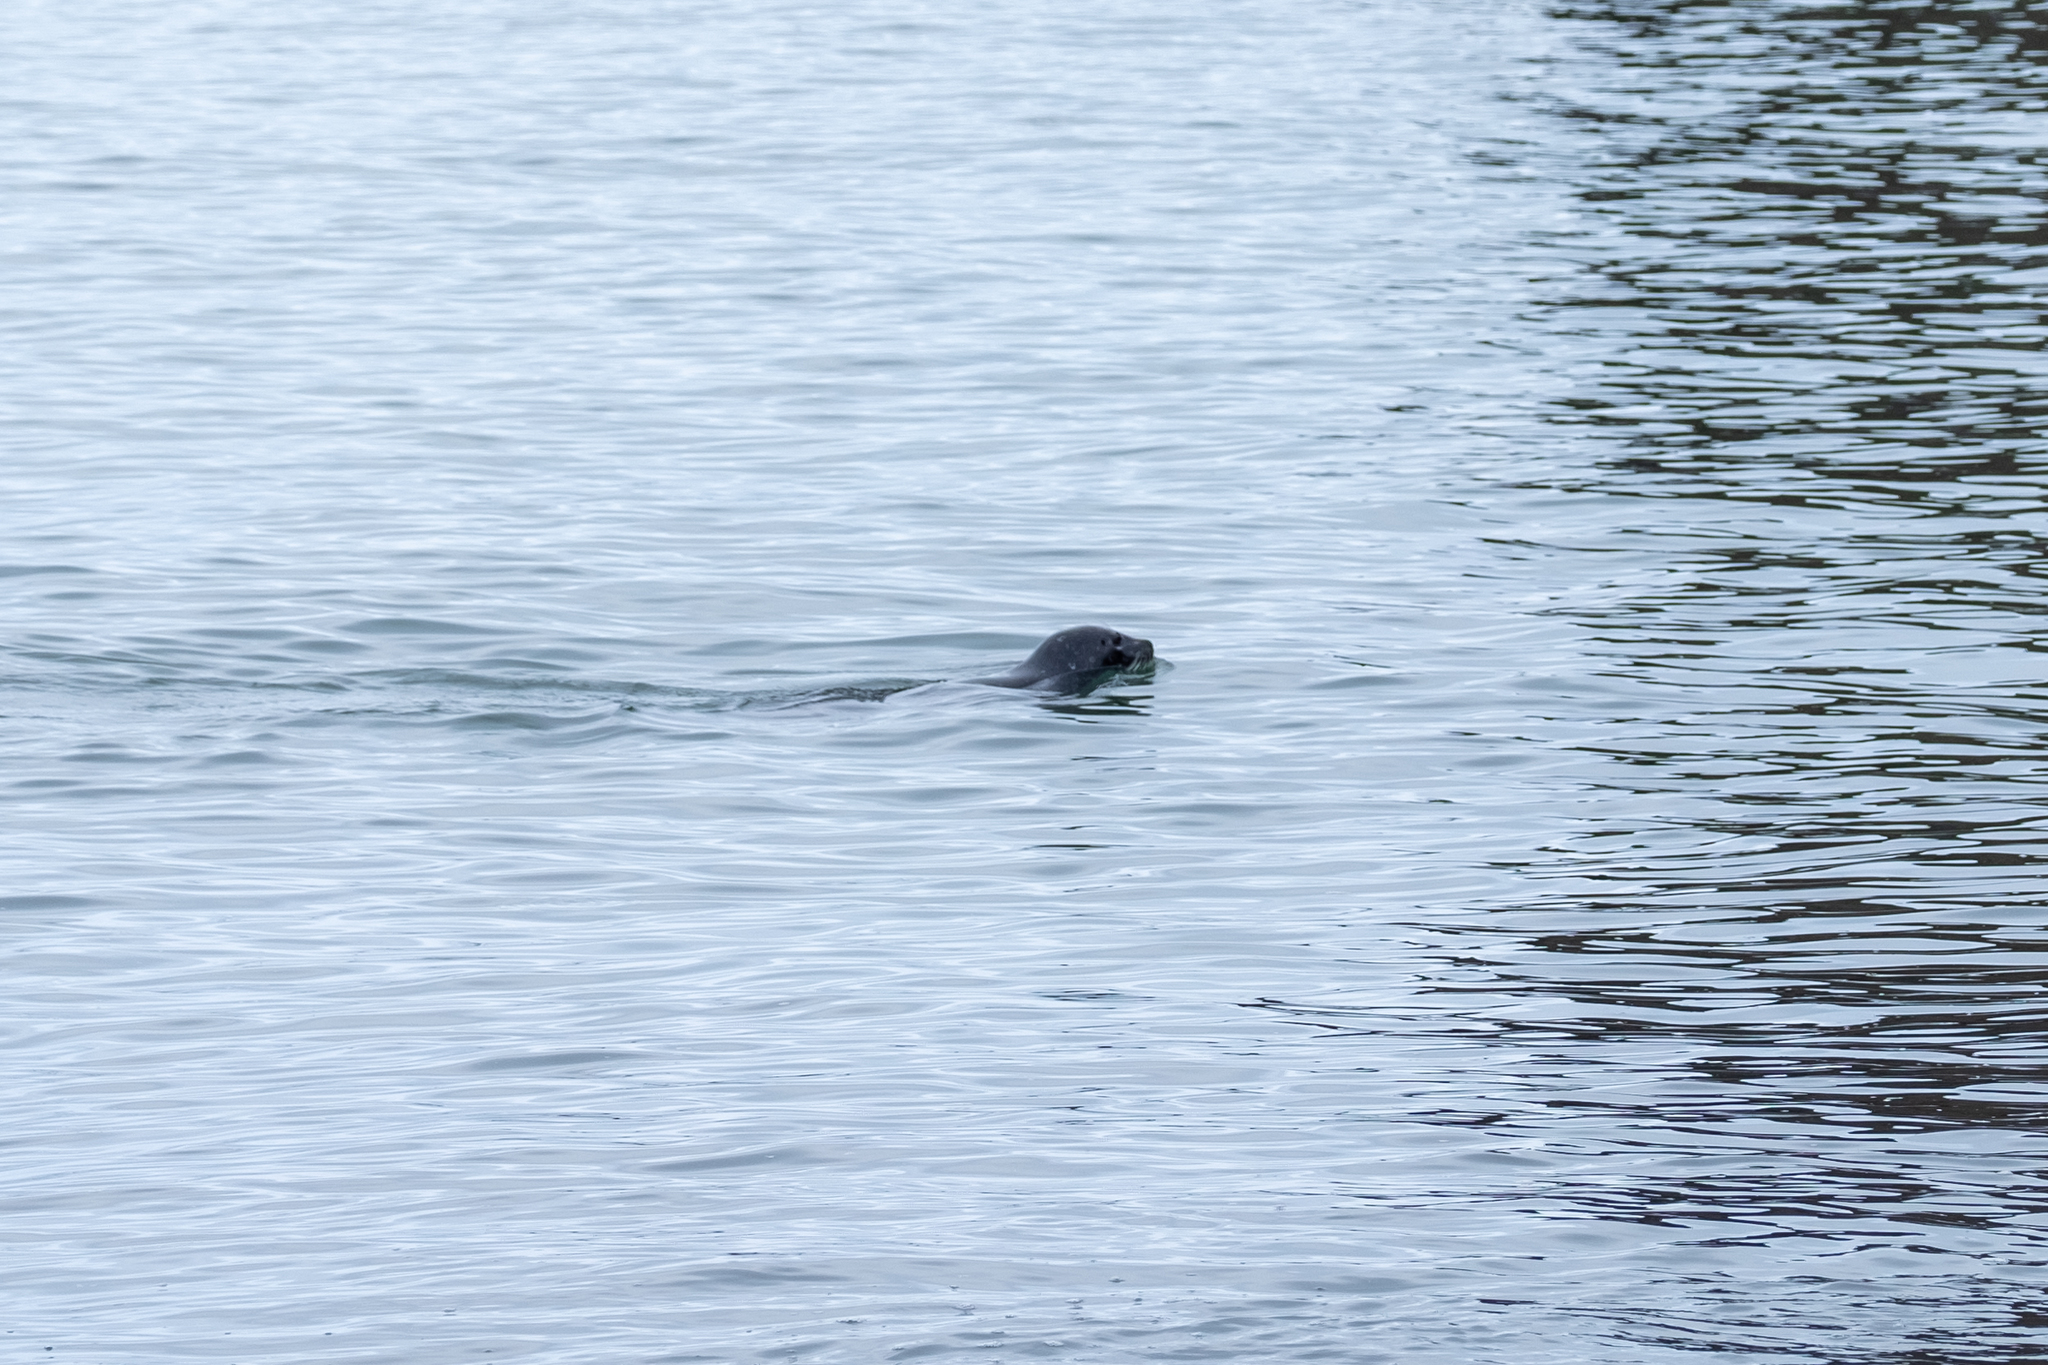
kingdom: Animalia
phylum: Chordata
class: Mammalia
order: Carnivora
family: Phocidae
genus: Phoca
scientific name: Phoca vitulina
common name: Harbor seal
